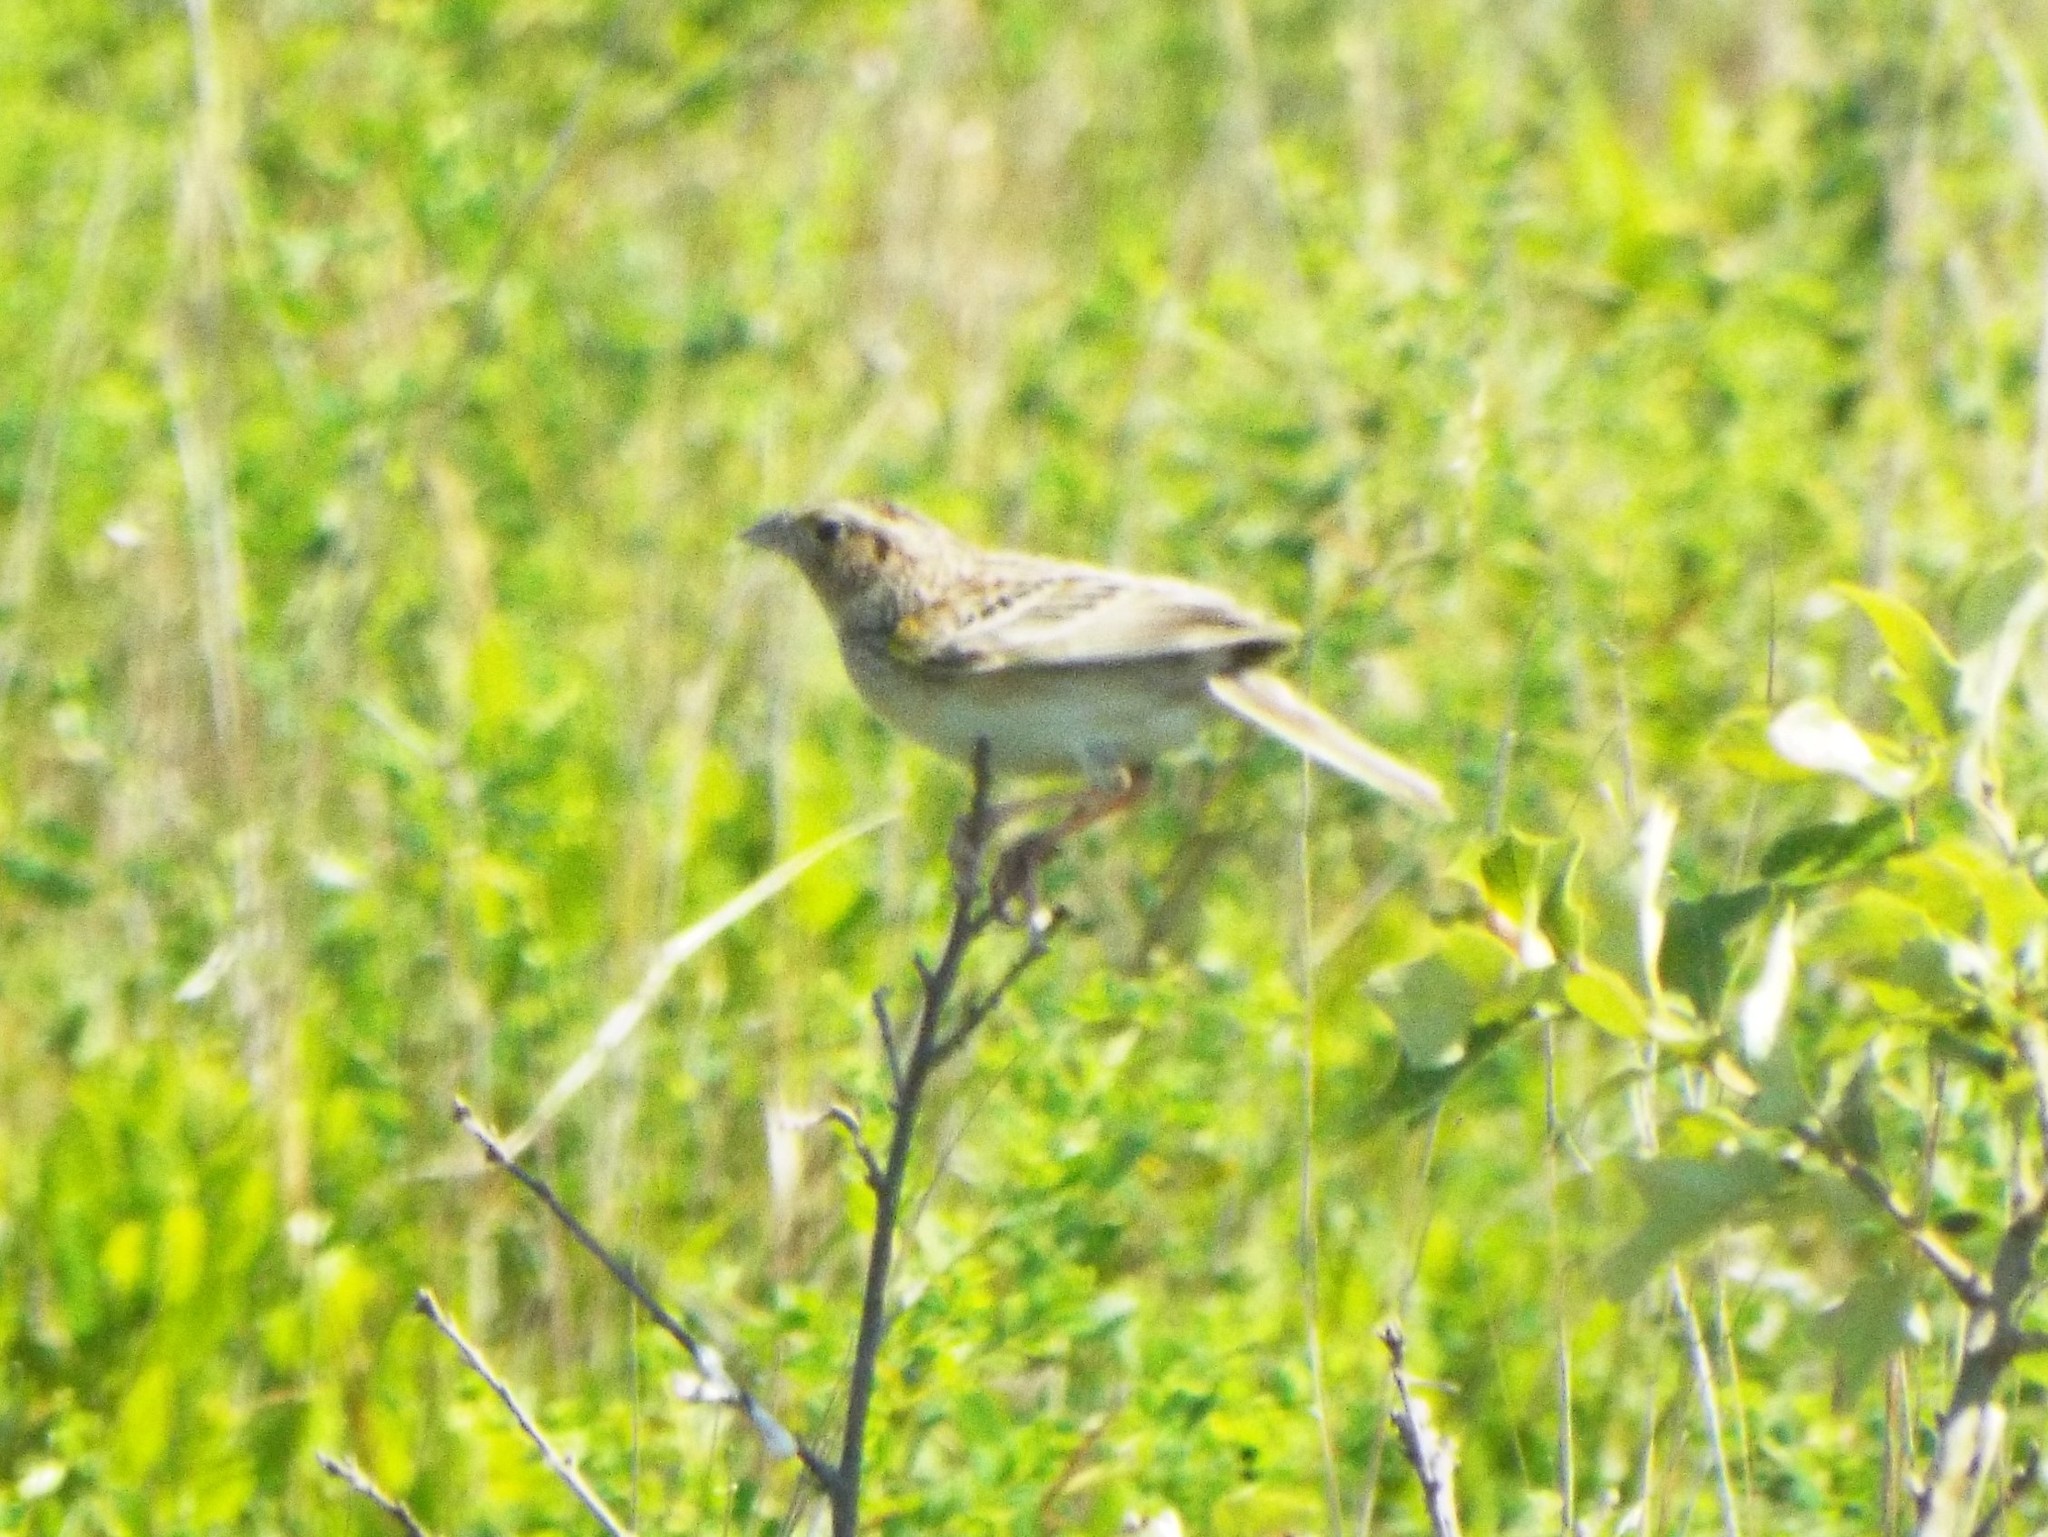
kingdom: Animalia
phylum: Chordata
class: Aves
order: Passeriformes
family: Passerellidae
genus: Ammodramus
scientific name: Ammodramus savannarum
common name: Grasshopper sparrow
